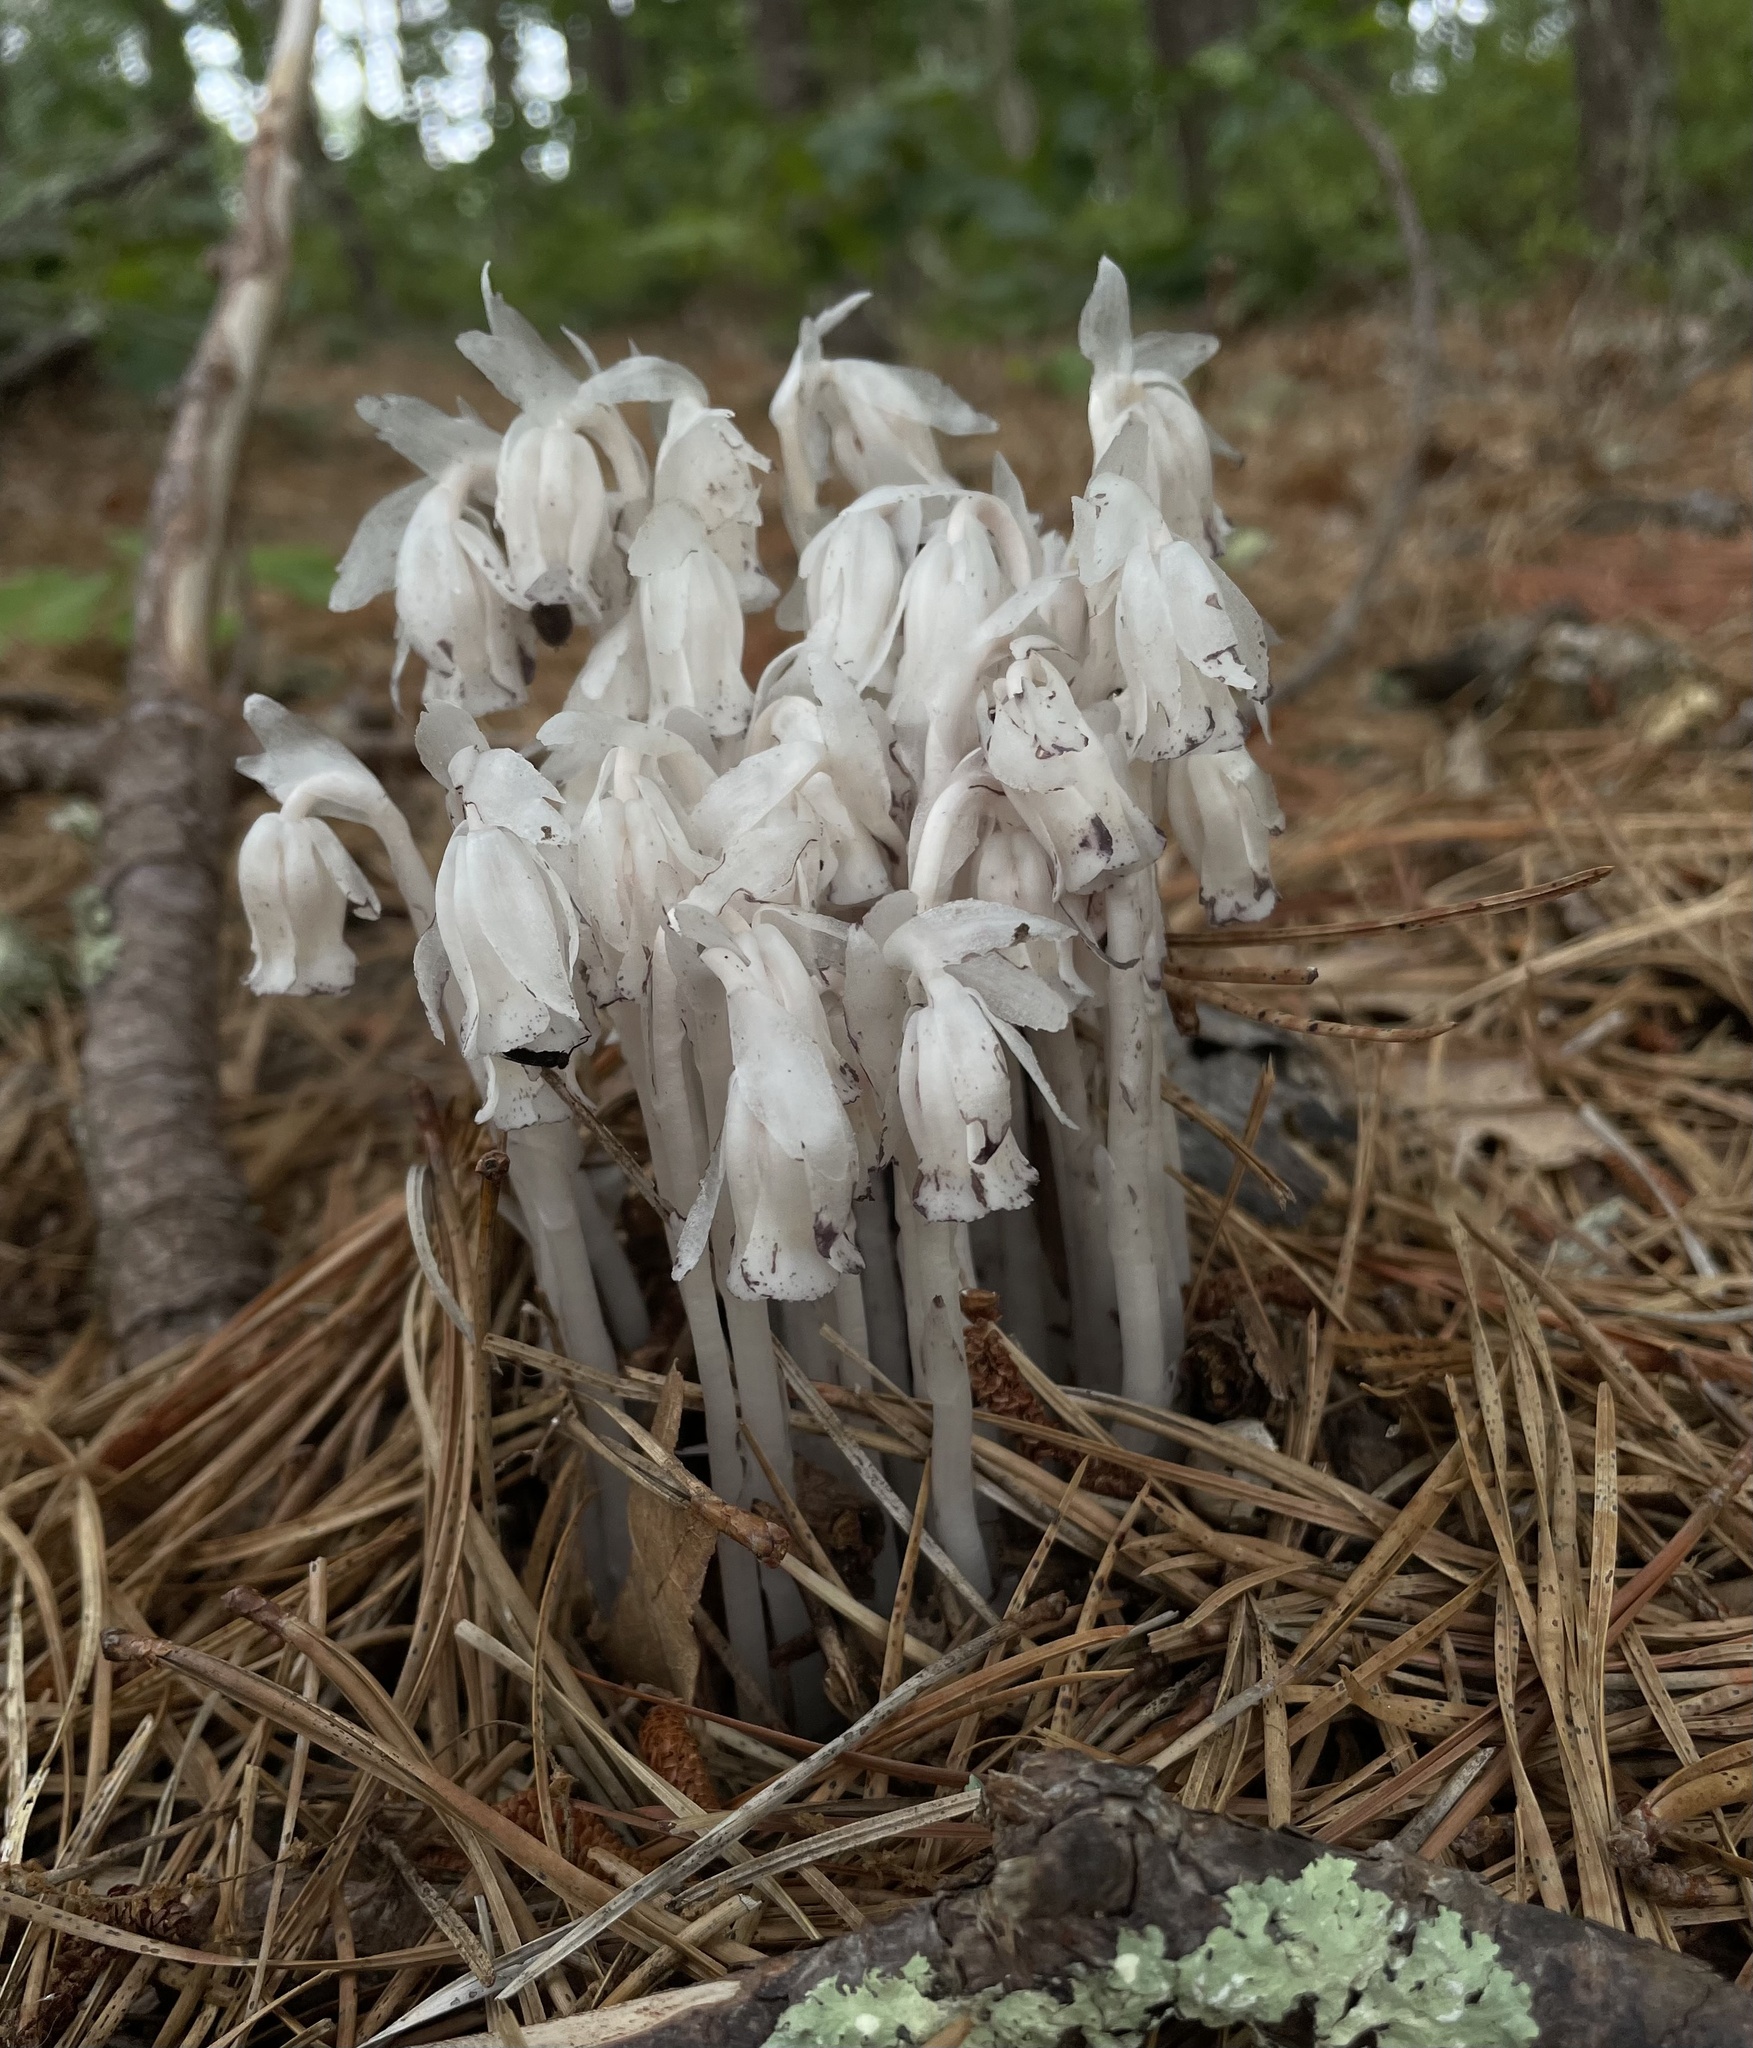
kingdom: Plantae
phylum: Tracheophyta
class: Magnoliopsida
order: Ericales
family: Ericaceae
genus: Monotropa
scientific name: Monotropa uniflora
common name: Convulsion root
